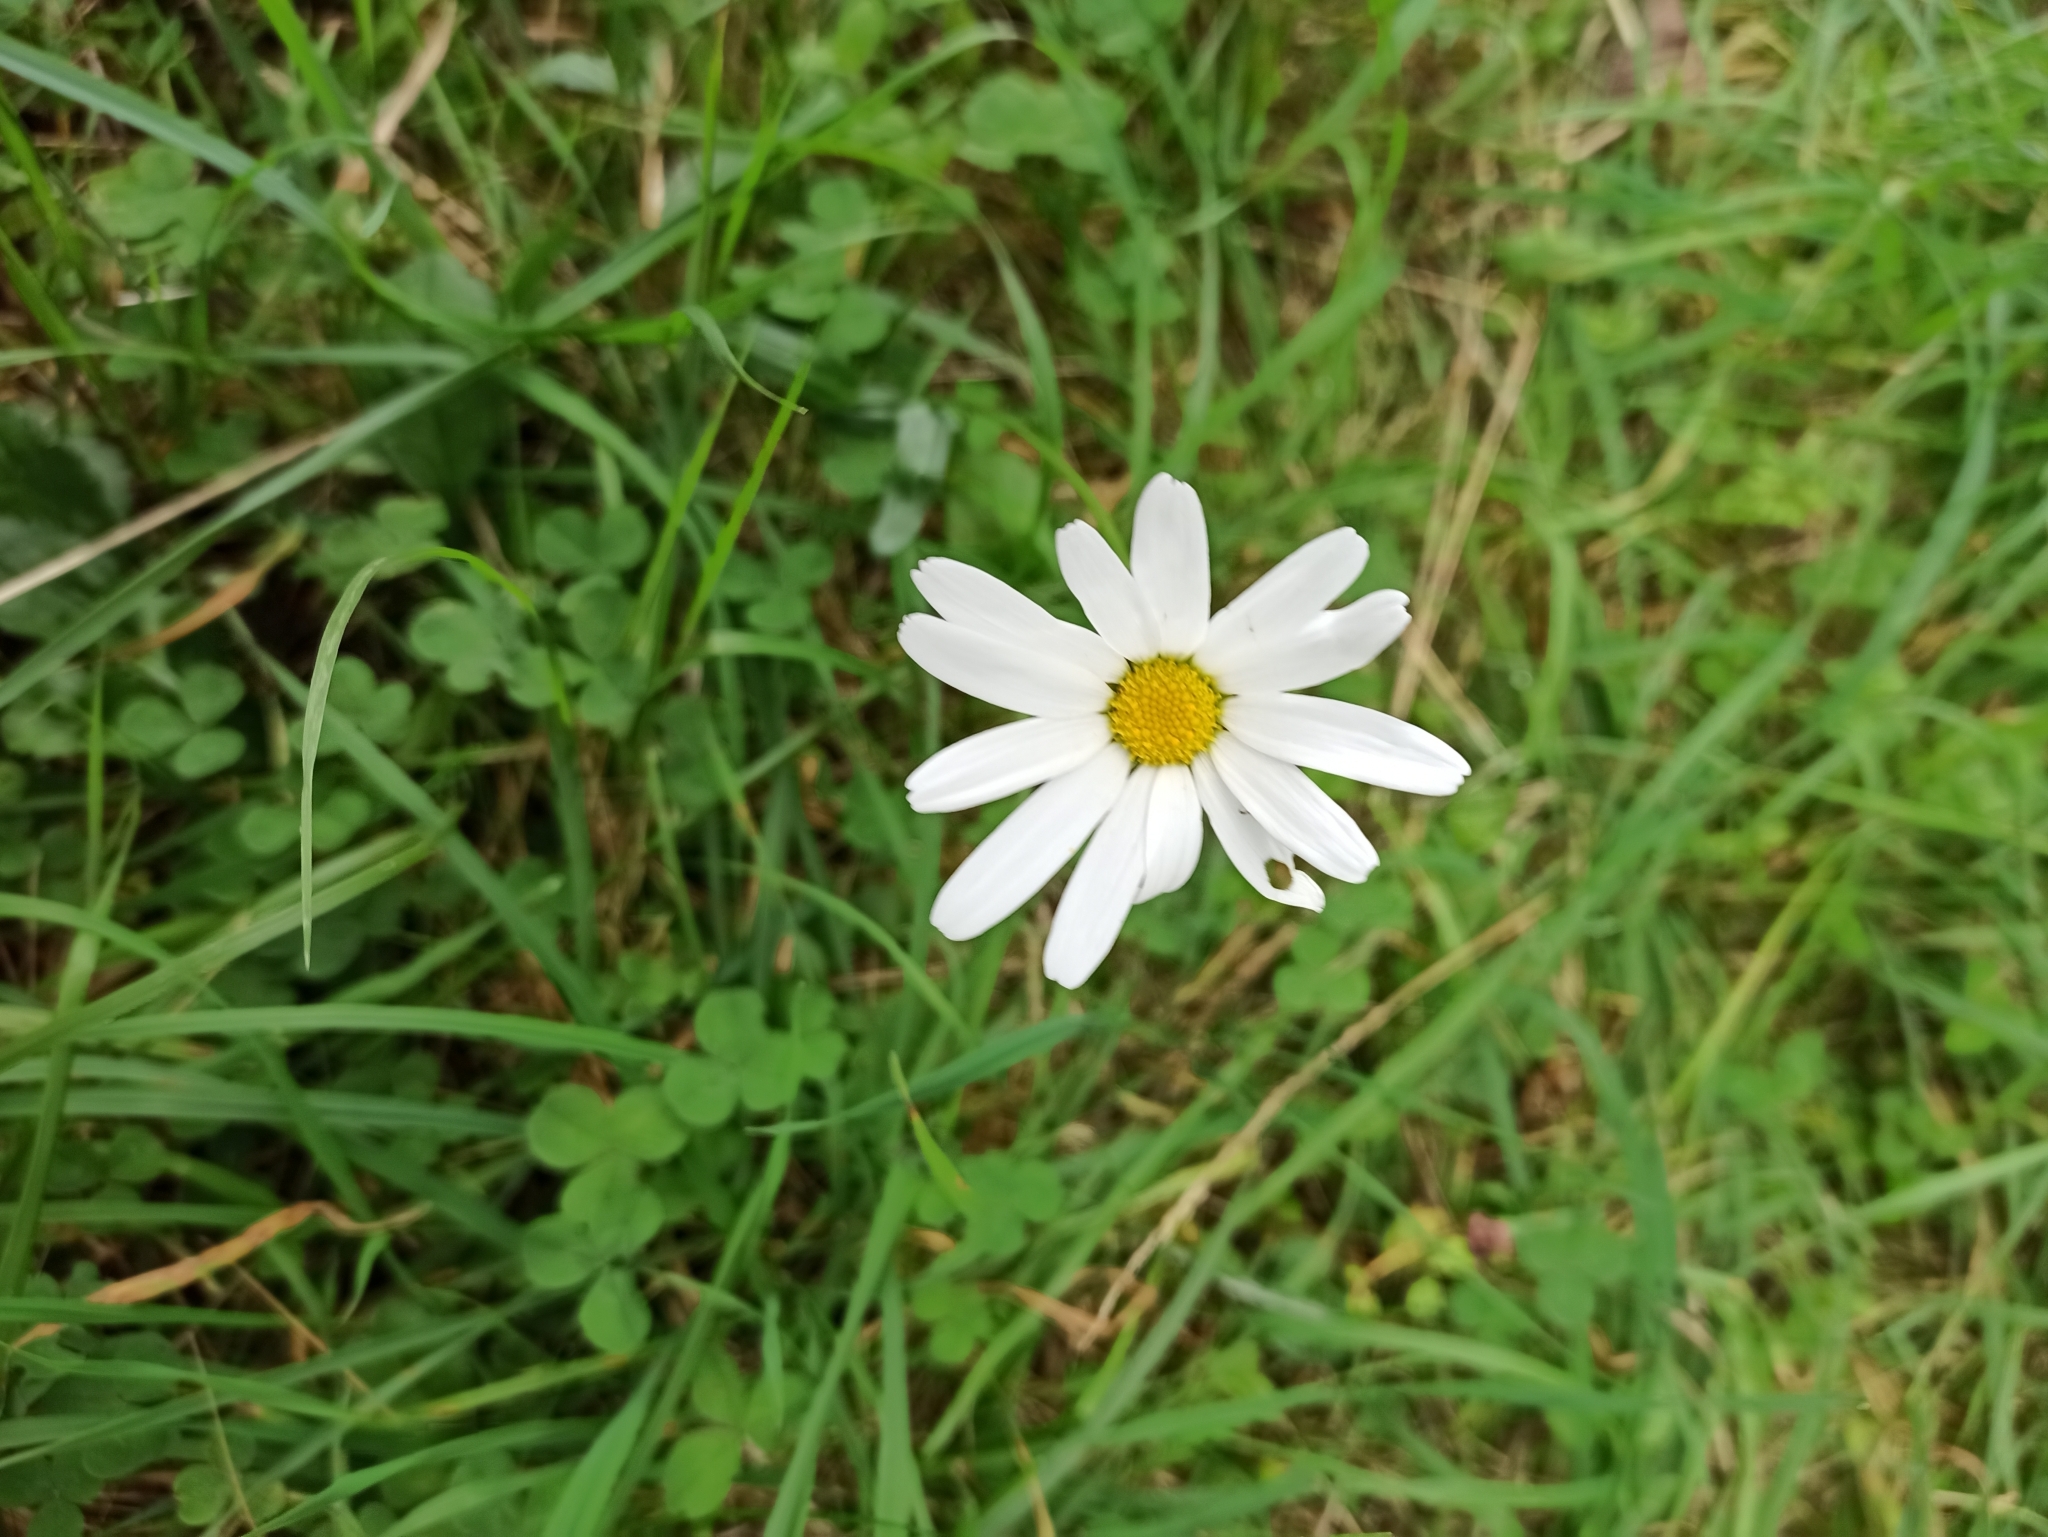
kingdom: Plantae
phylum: Tracheophyta
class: Magnoliopsida
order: Asterales
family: Asteraceae
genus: Leucanthemum
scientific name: Leucanthemum vulgare
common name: Oxeye daisy
